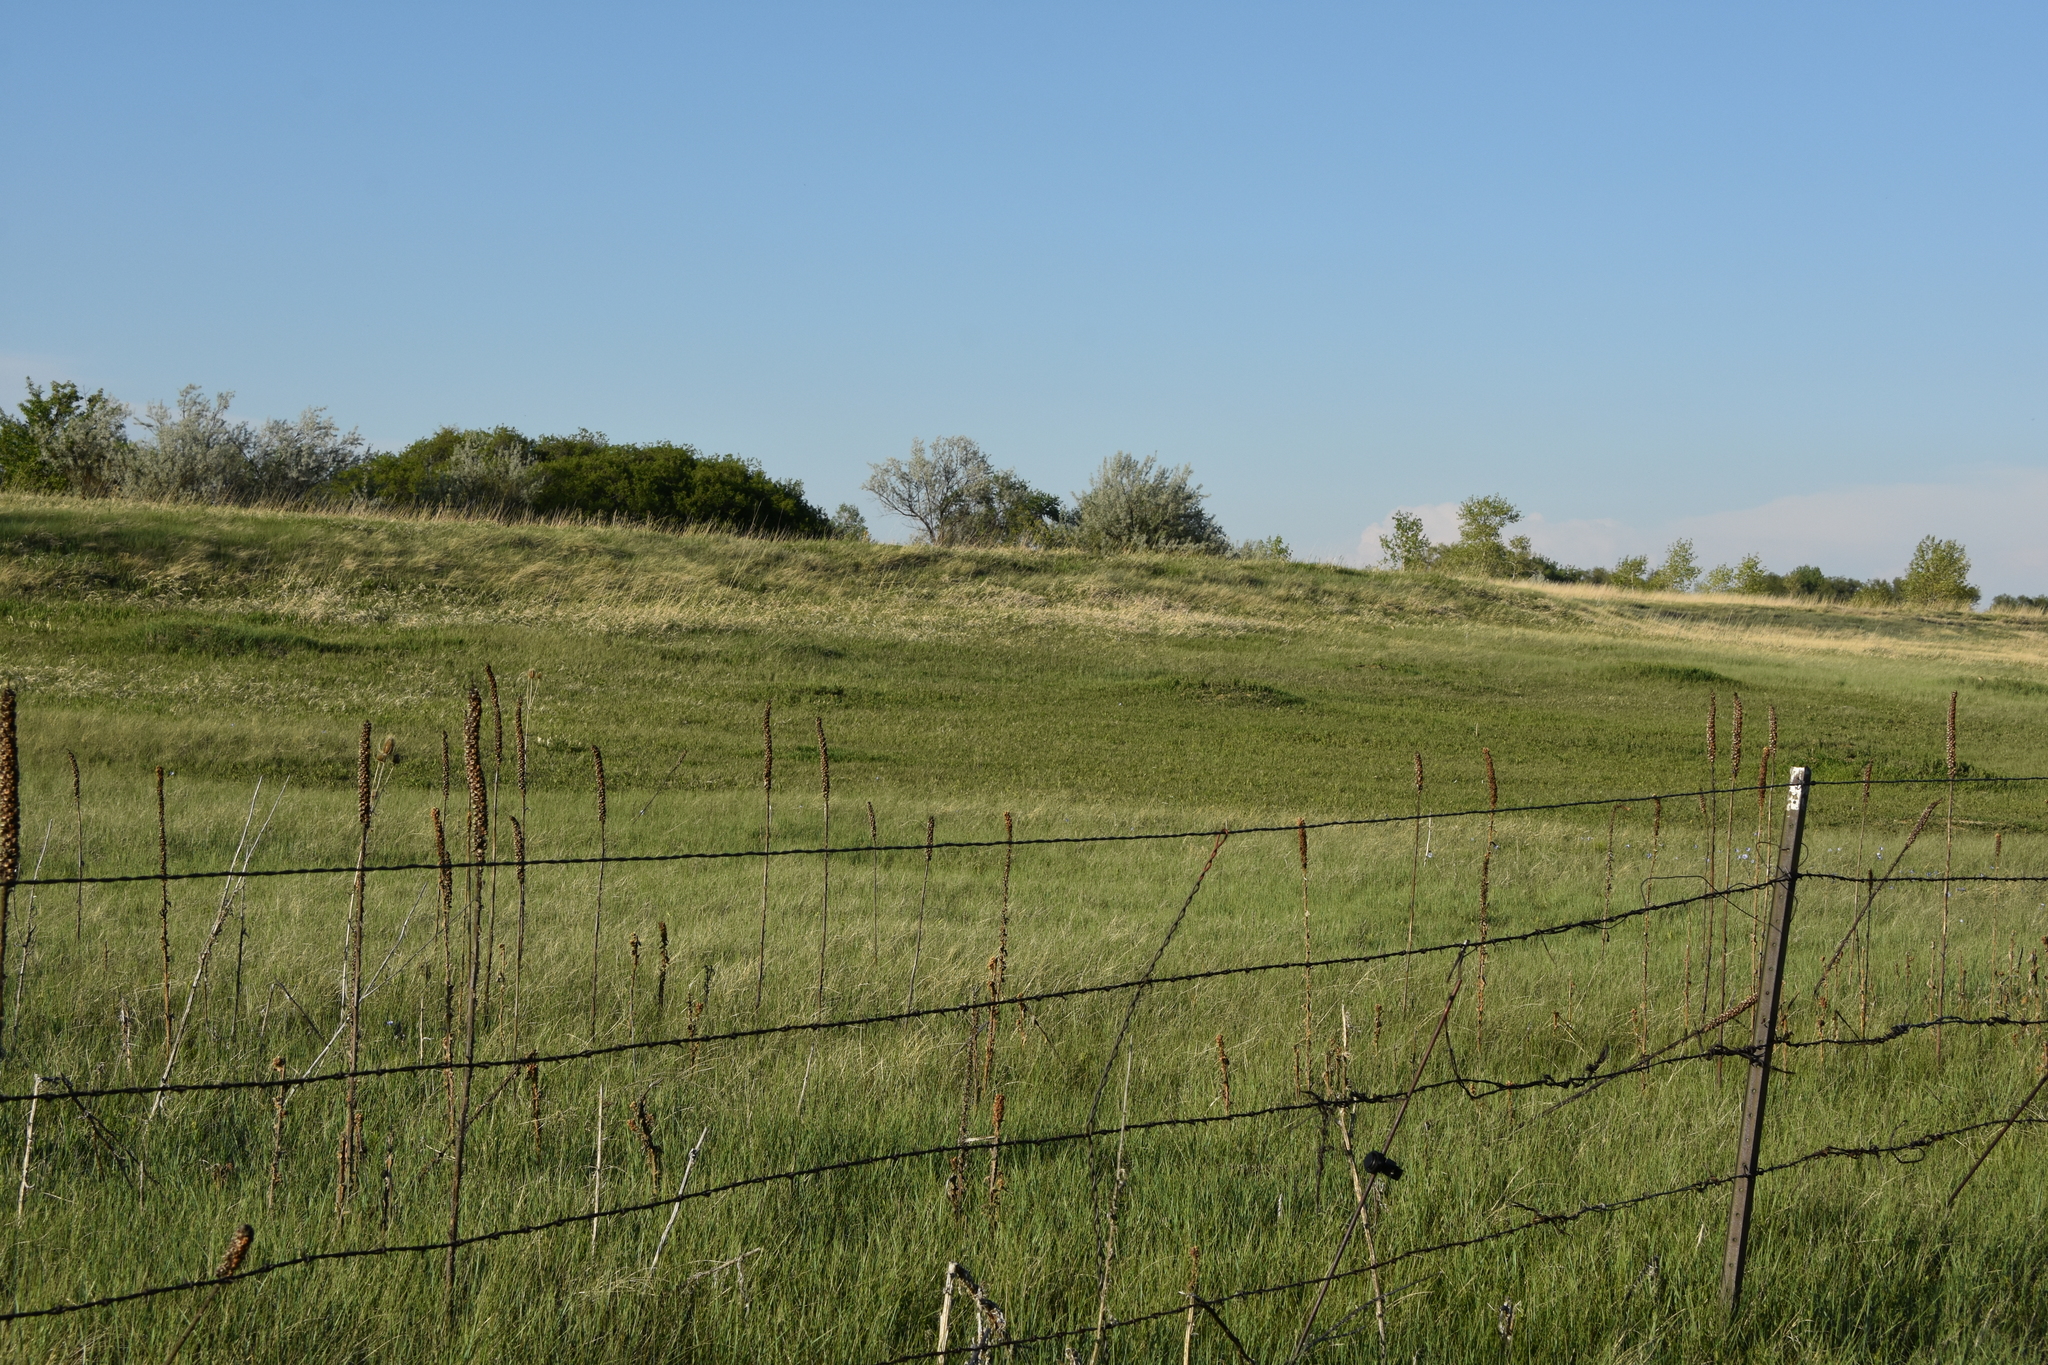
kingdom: Plantae
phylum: Tracheophyta
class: Magnoliopsida
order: Lamiales
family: Scrophulariaceae
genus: Verbascum
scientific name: Verbascum thapsus
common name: Common mullein
